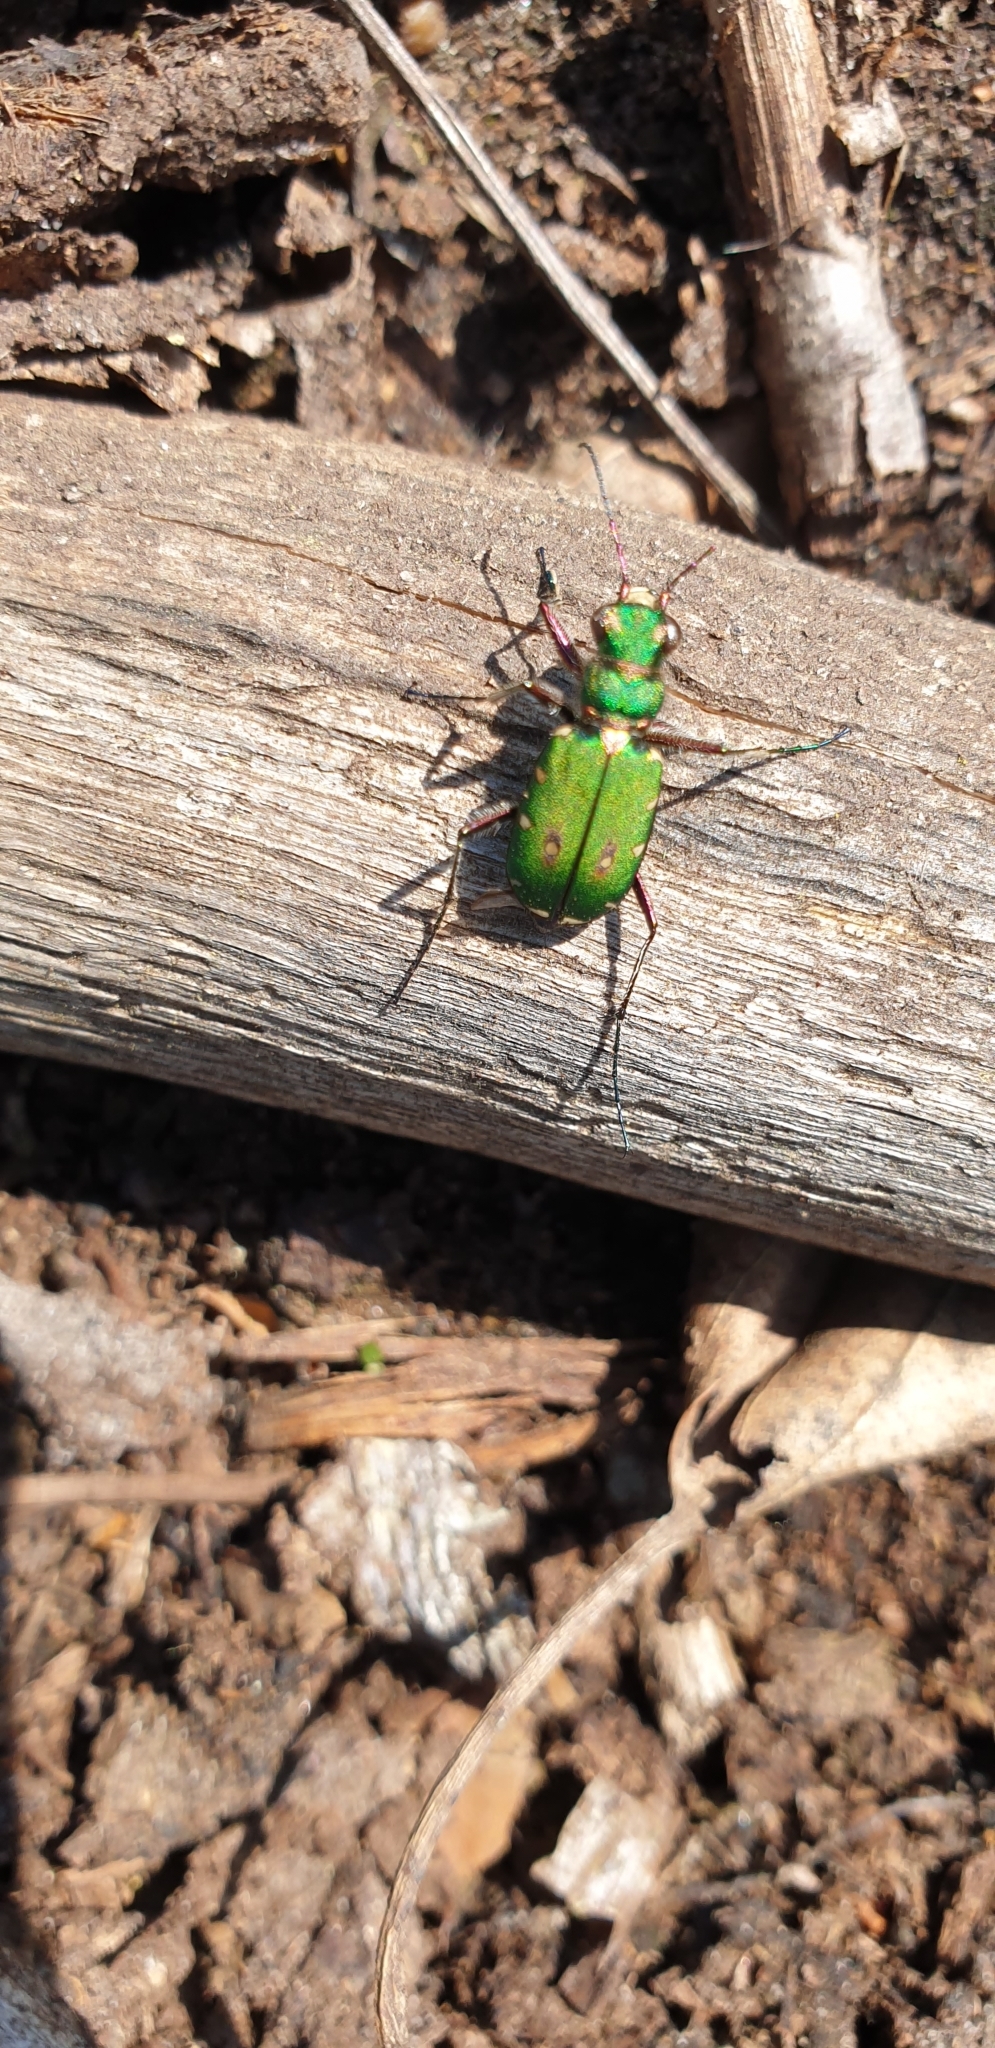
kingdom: Animalia
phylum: Arthropoda
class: Insecta
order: Coleoptera
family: Carabidae
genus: Cicindela
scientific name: Cicindela campestris
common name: Common tiger beetle
